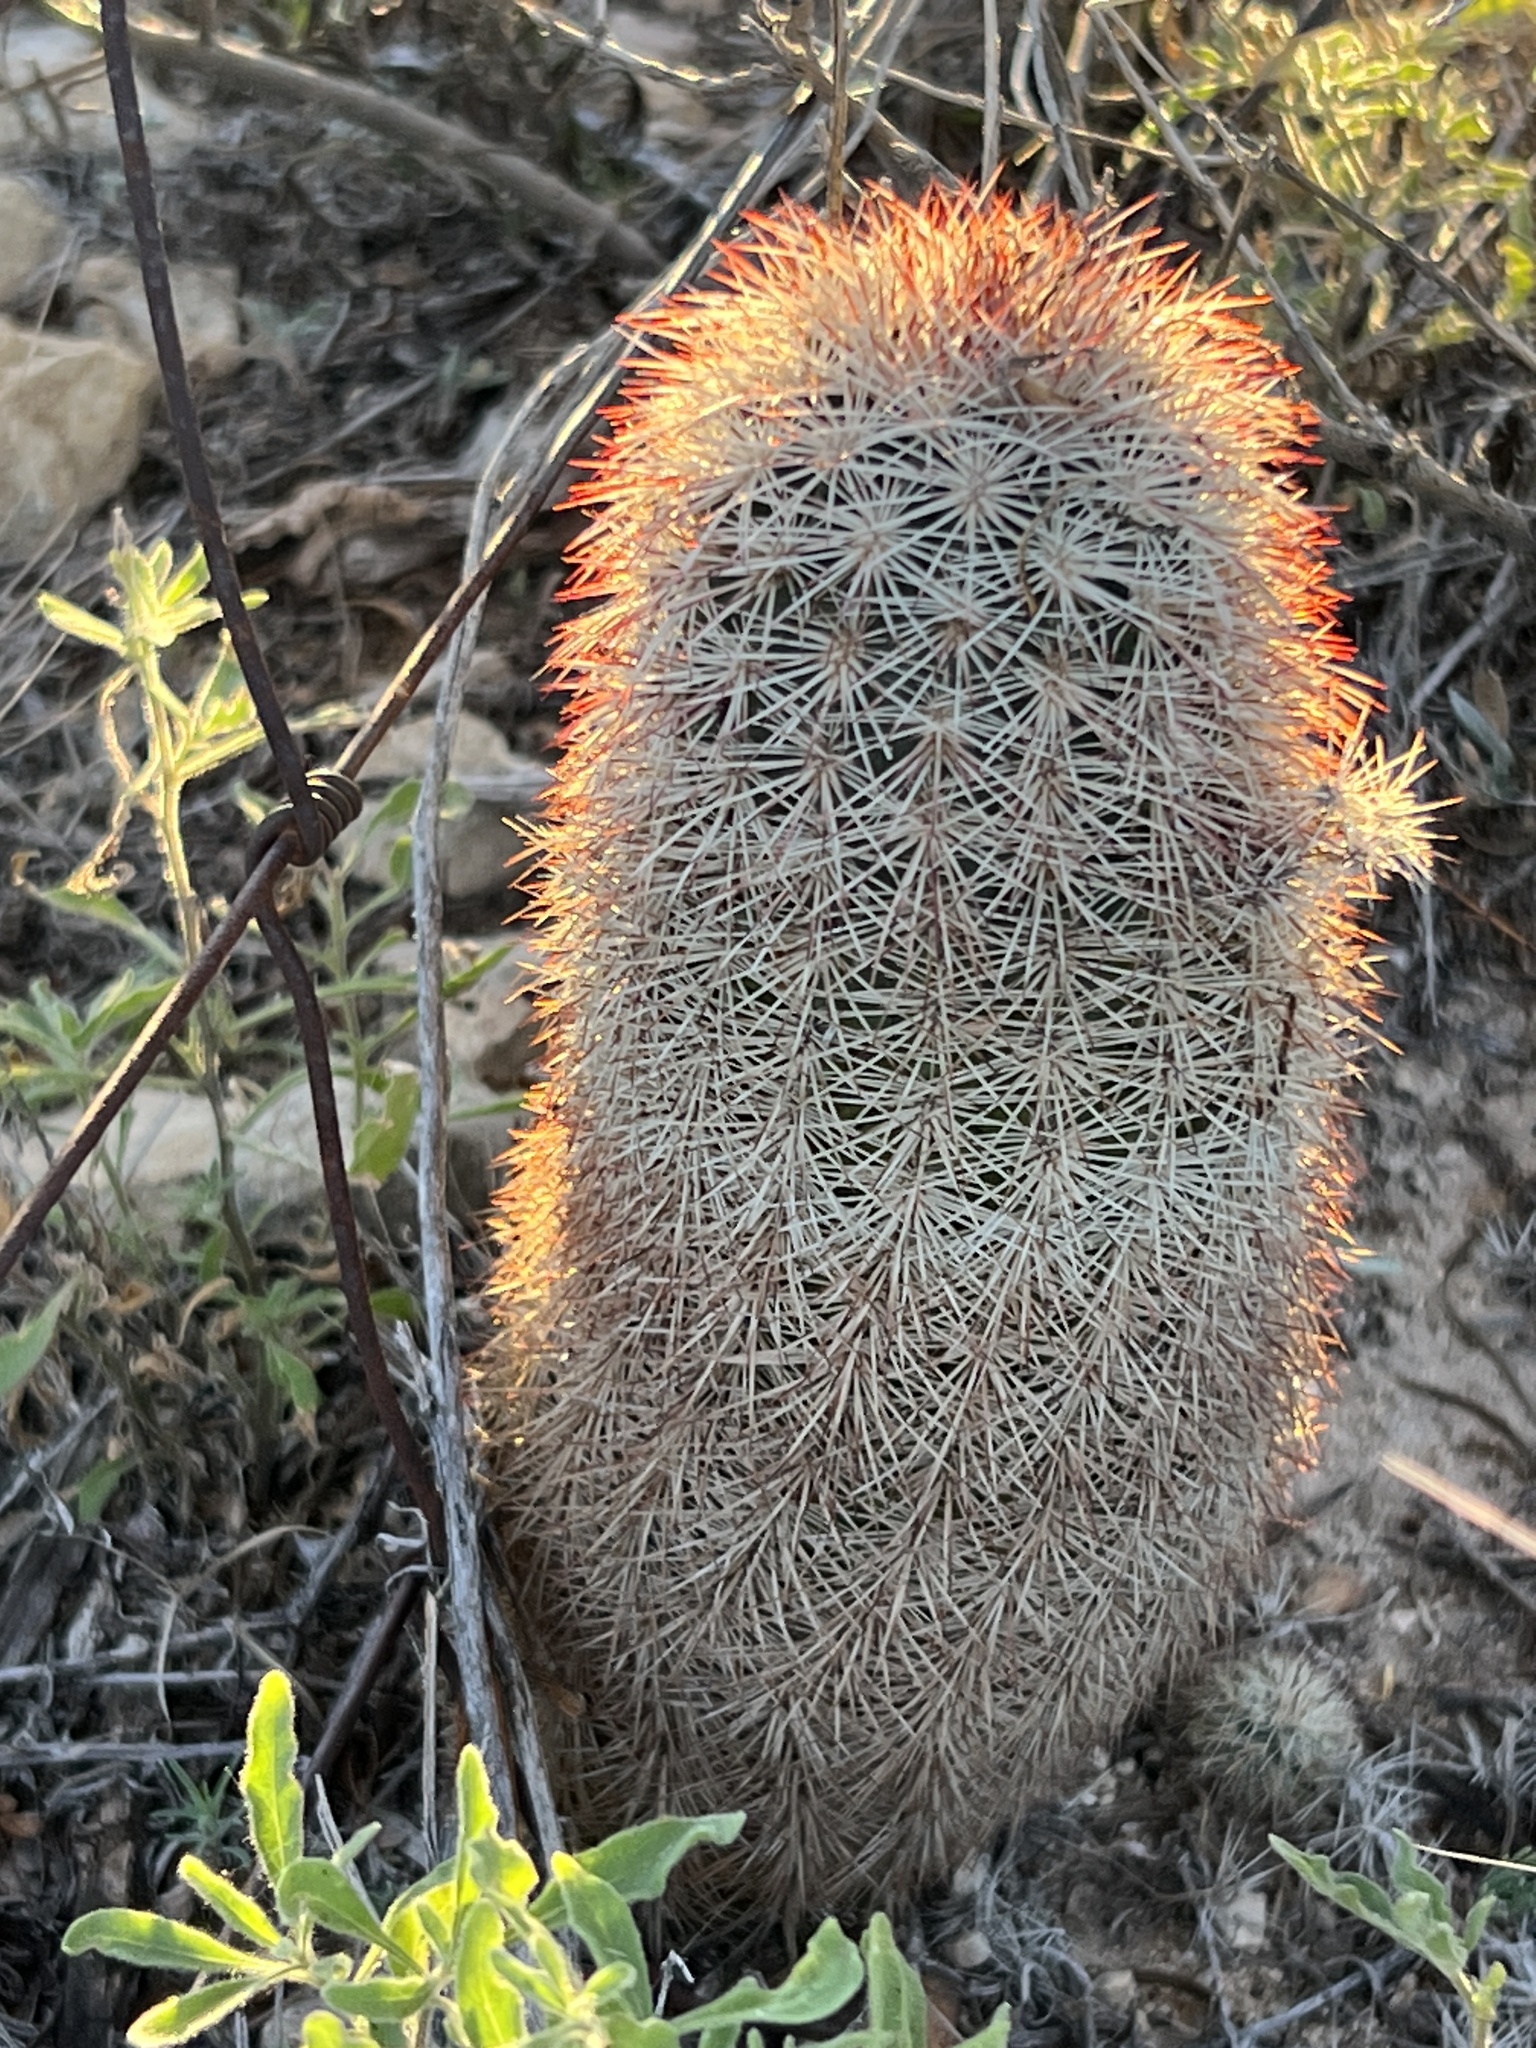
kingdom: Plantae
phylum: Tracheophyta
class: Magnoliopsida
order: Caryophyllales
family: Cactaceae
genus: Echinocereus
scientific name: Echinocereus dasyacanthus
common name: Spiny hedgehog cactus
